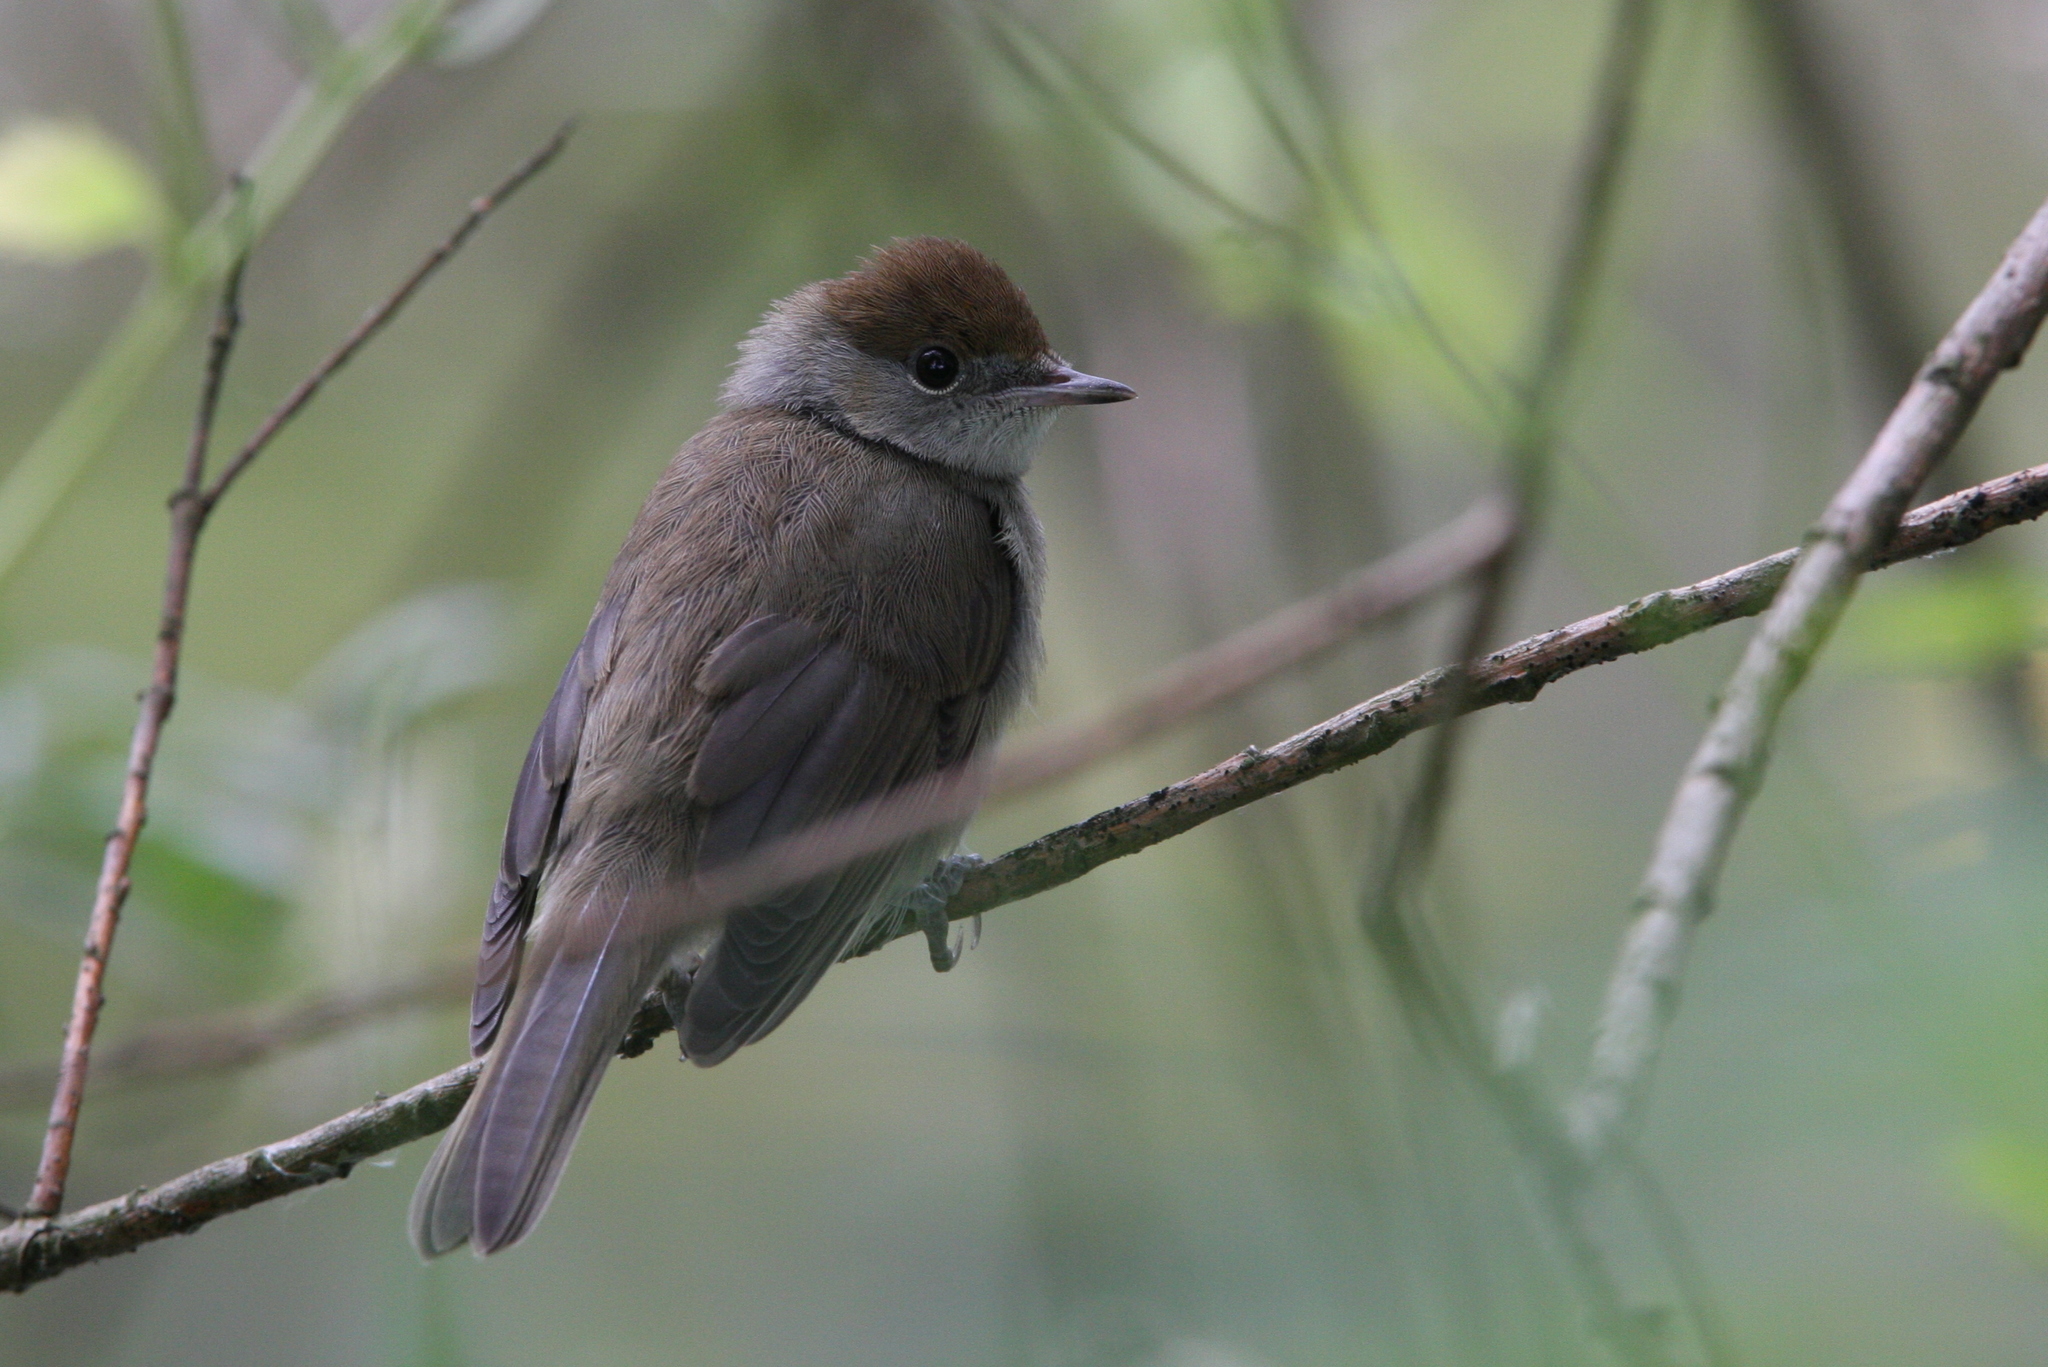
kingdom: Animalia
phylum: Chordata
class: Aves
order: Passeriformes
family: Sylviidae
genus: Sylvia
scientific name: Sylvia atricapilla
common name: Eurasian blackcap
